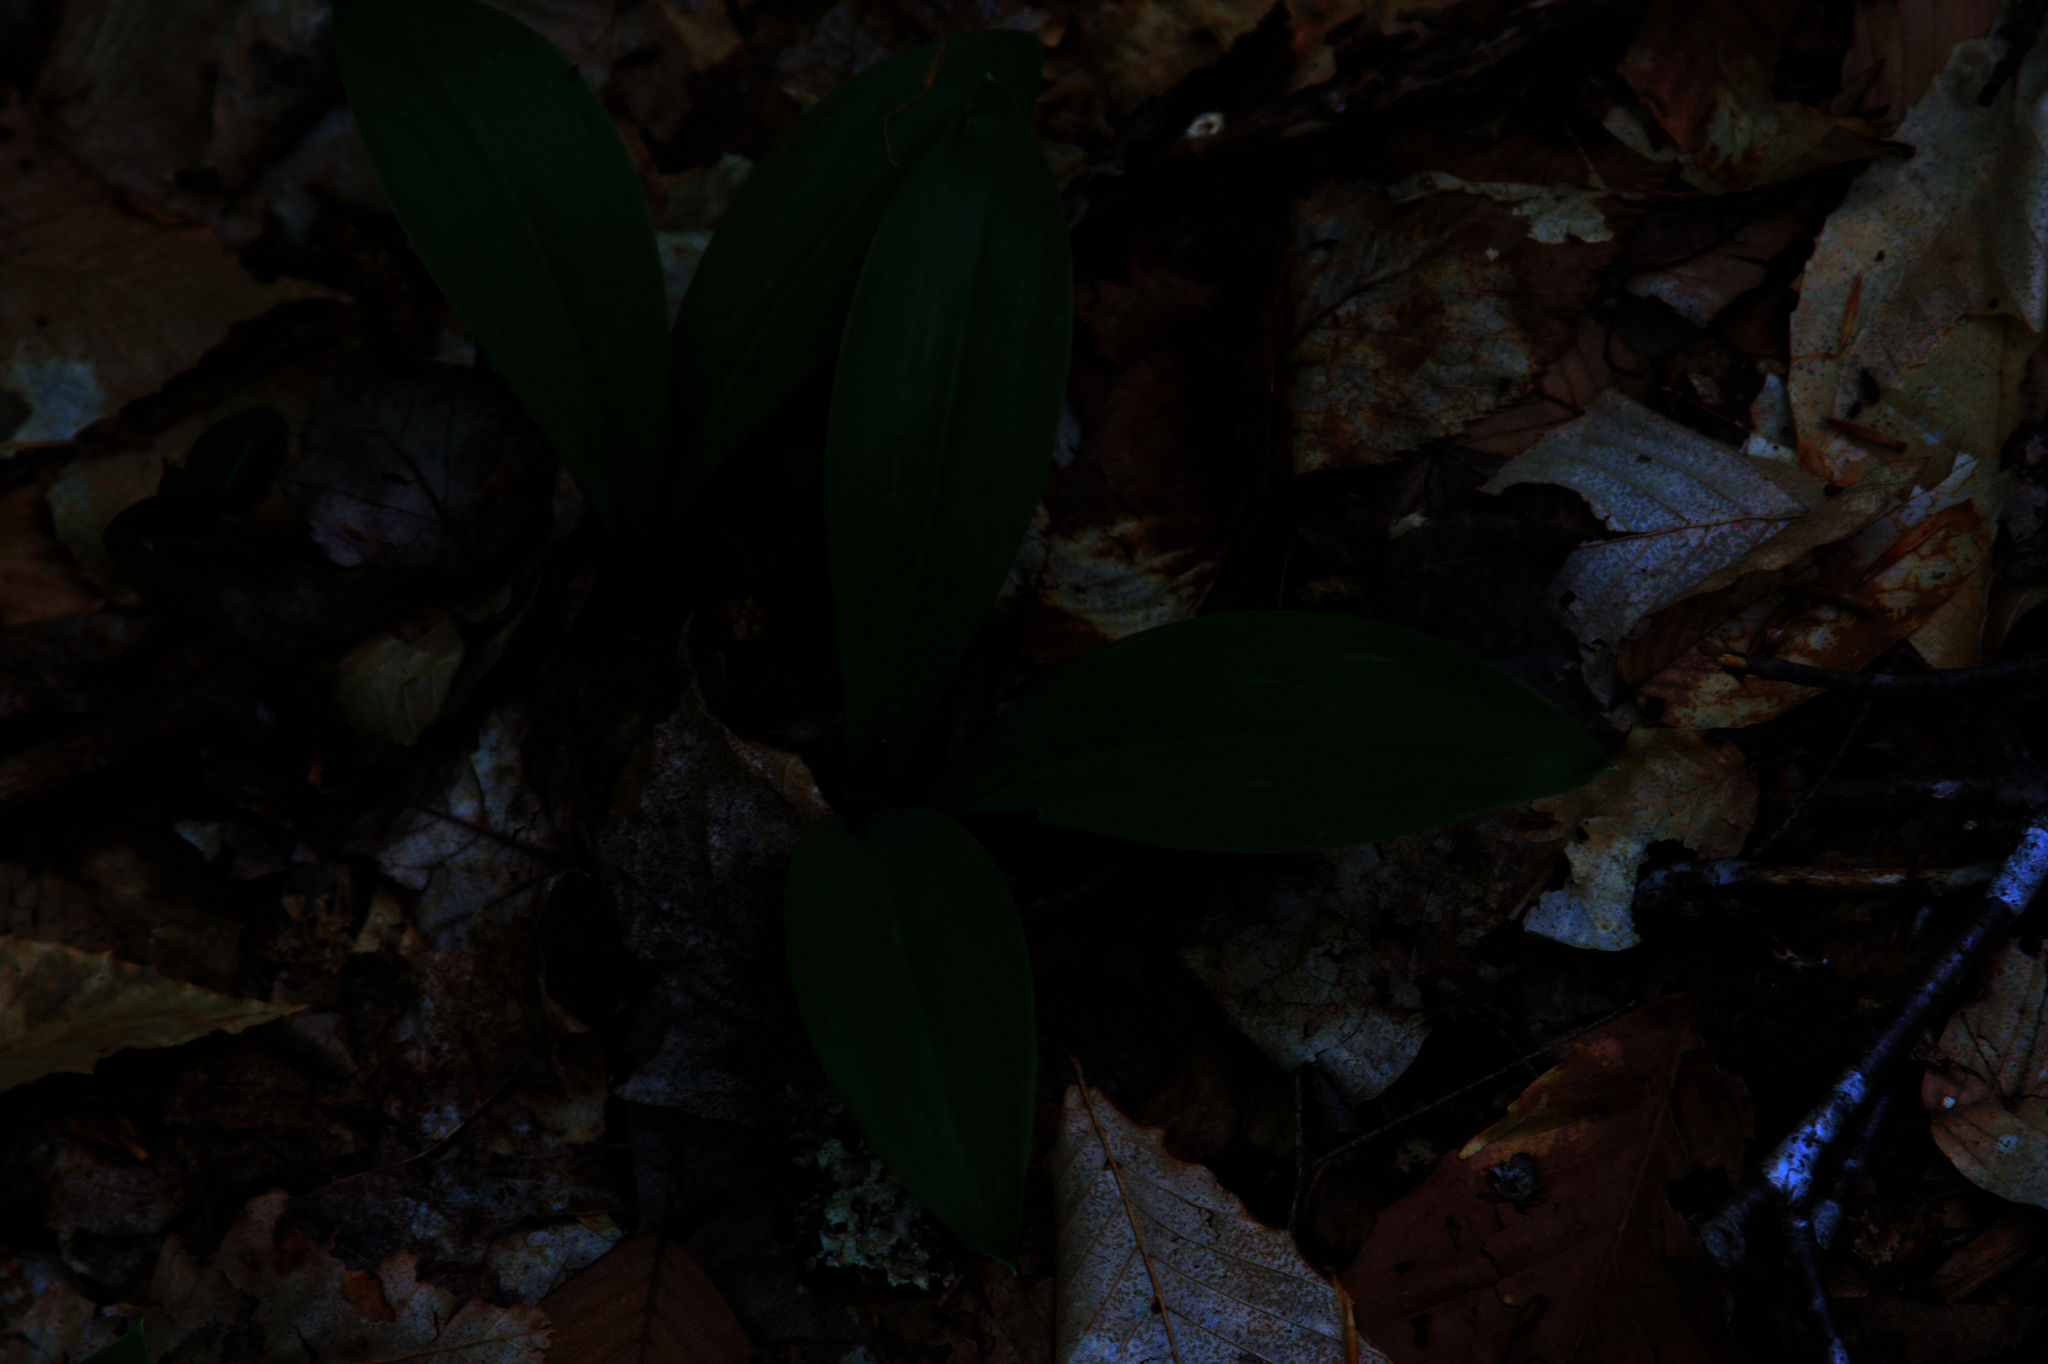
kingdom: Plantae
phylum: Tracheophyta
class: Liliopsida
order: Liliales
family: Liliaceae
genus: Clintonia
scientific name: Clintonia borealis
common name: Yellow clintonia
